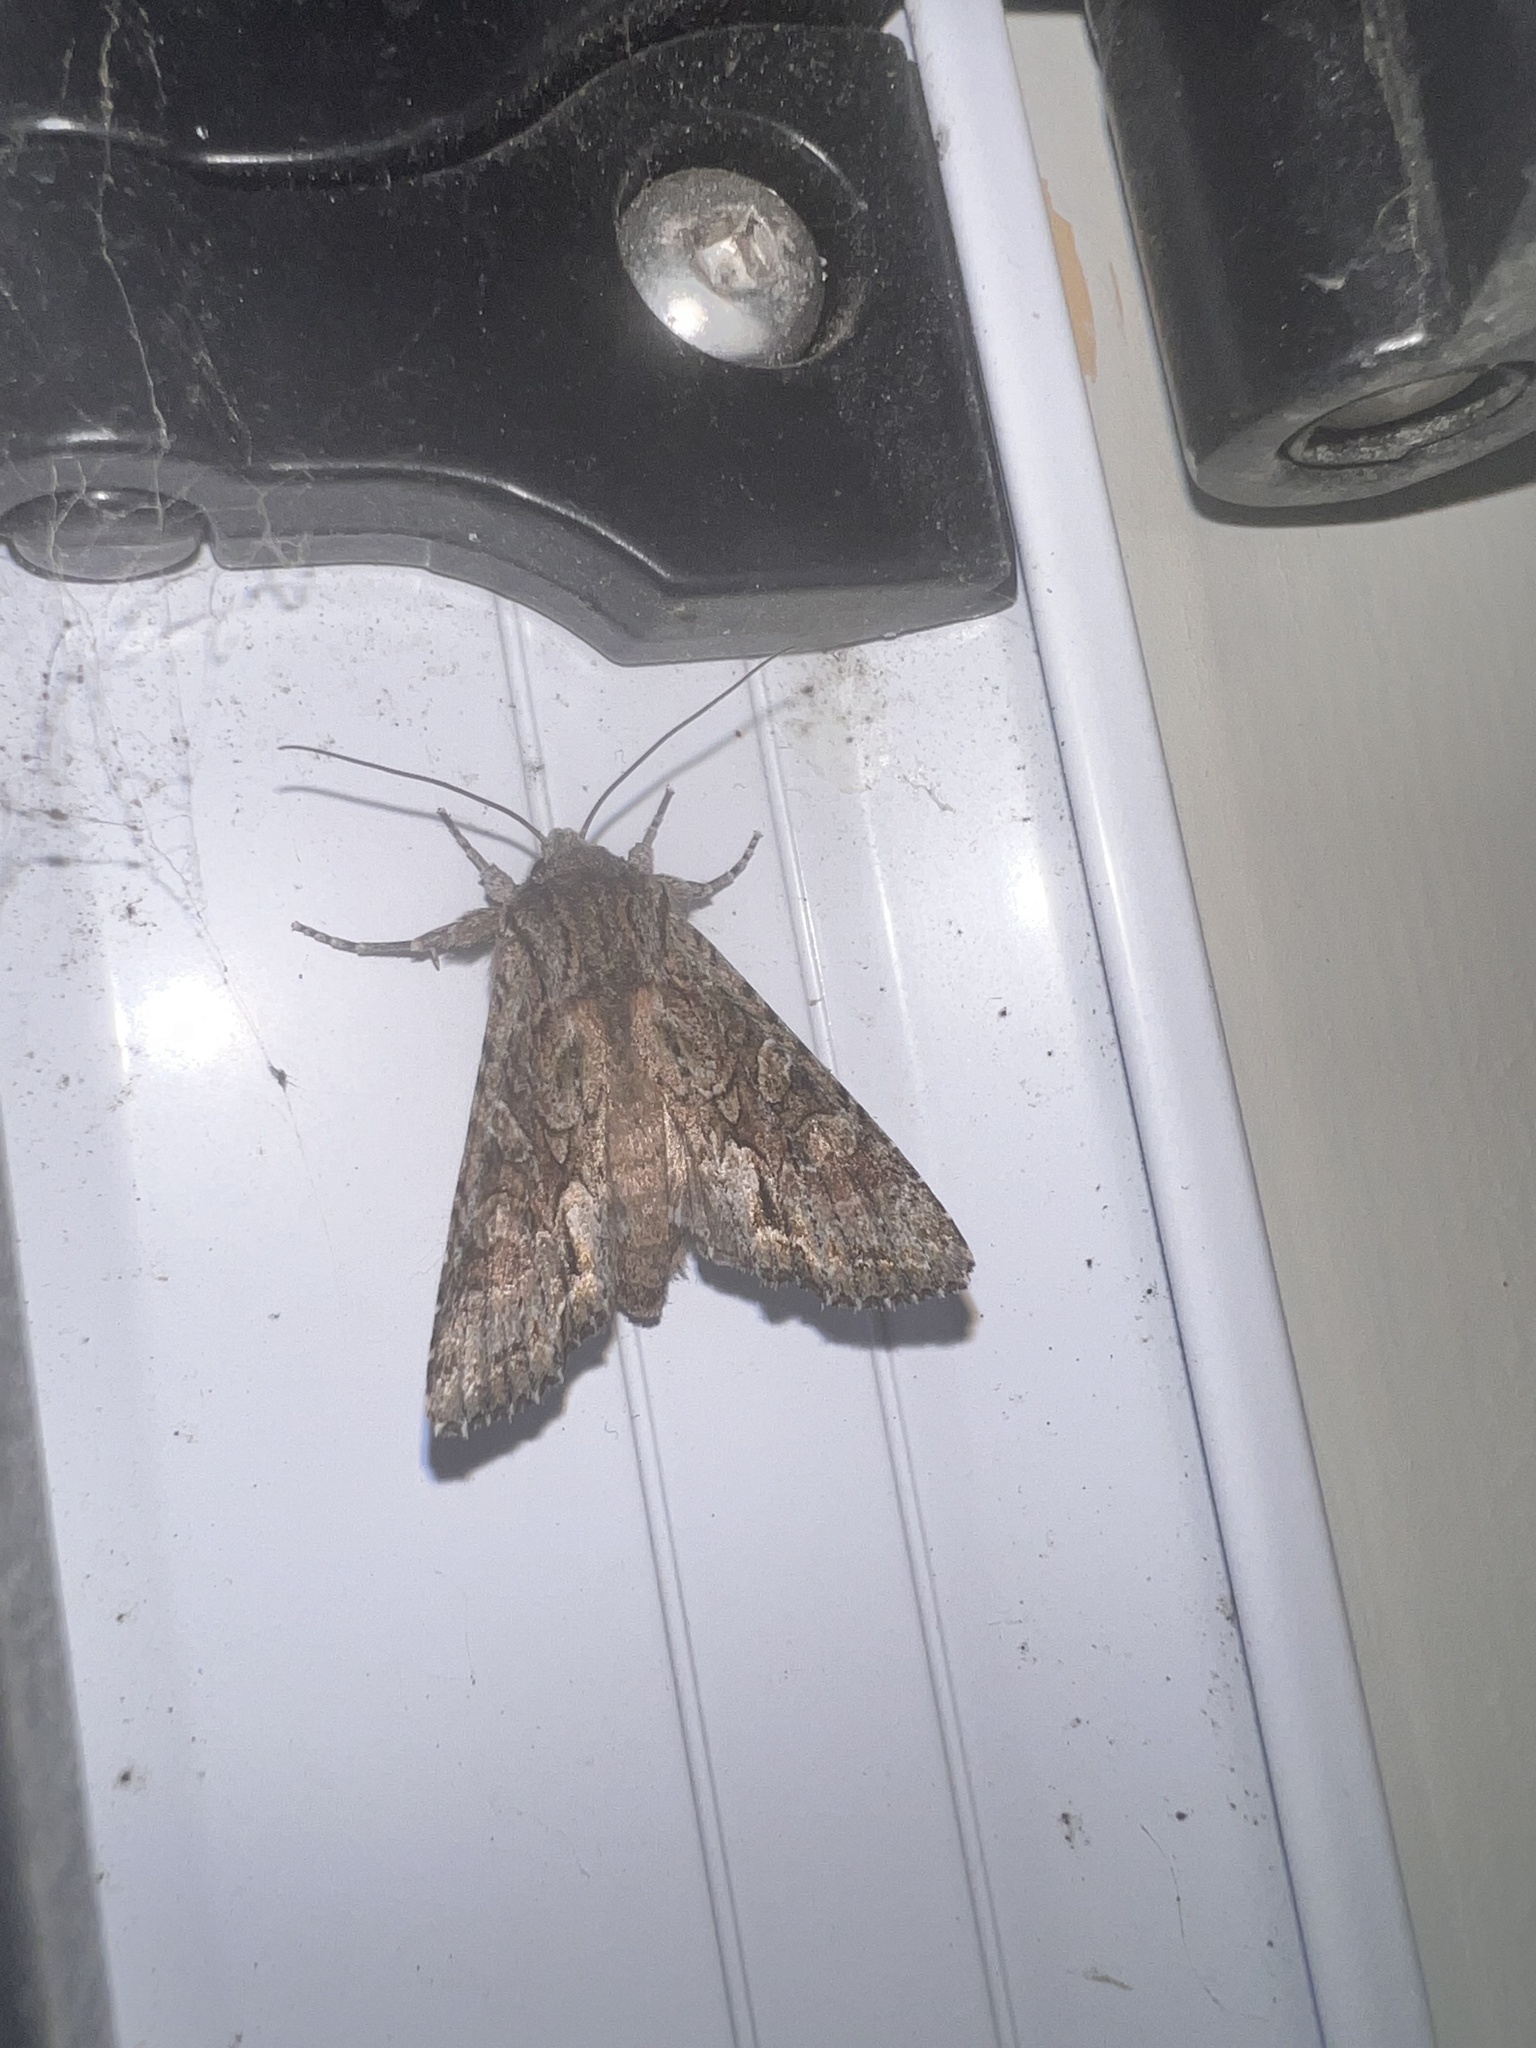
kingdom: Animalia
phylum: Arthropoda
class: Insecta
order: Lepidoptera
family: Noctuidae
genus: Ichneutica
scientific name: Ichneutica mutans
